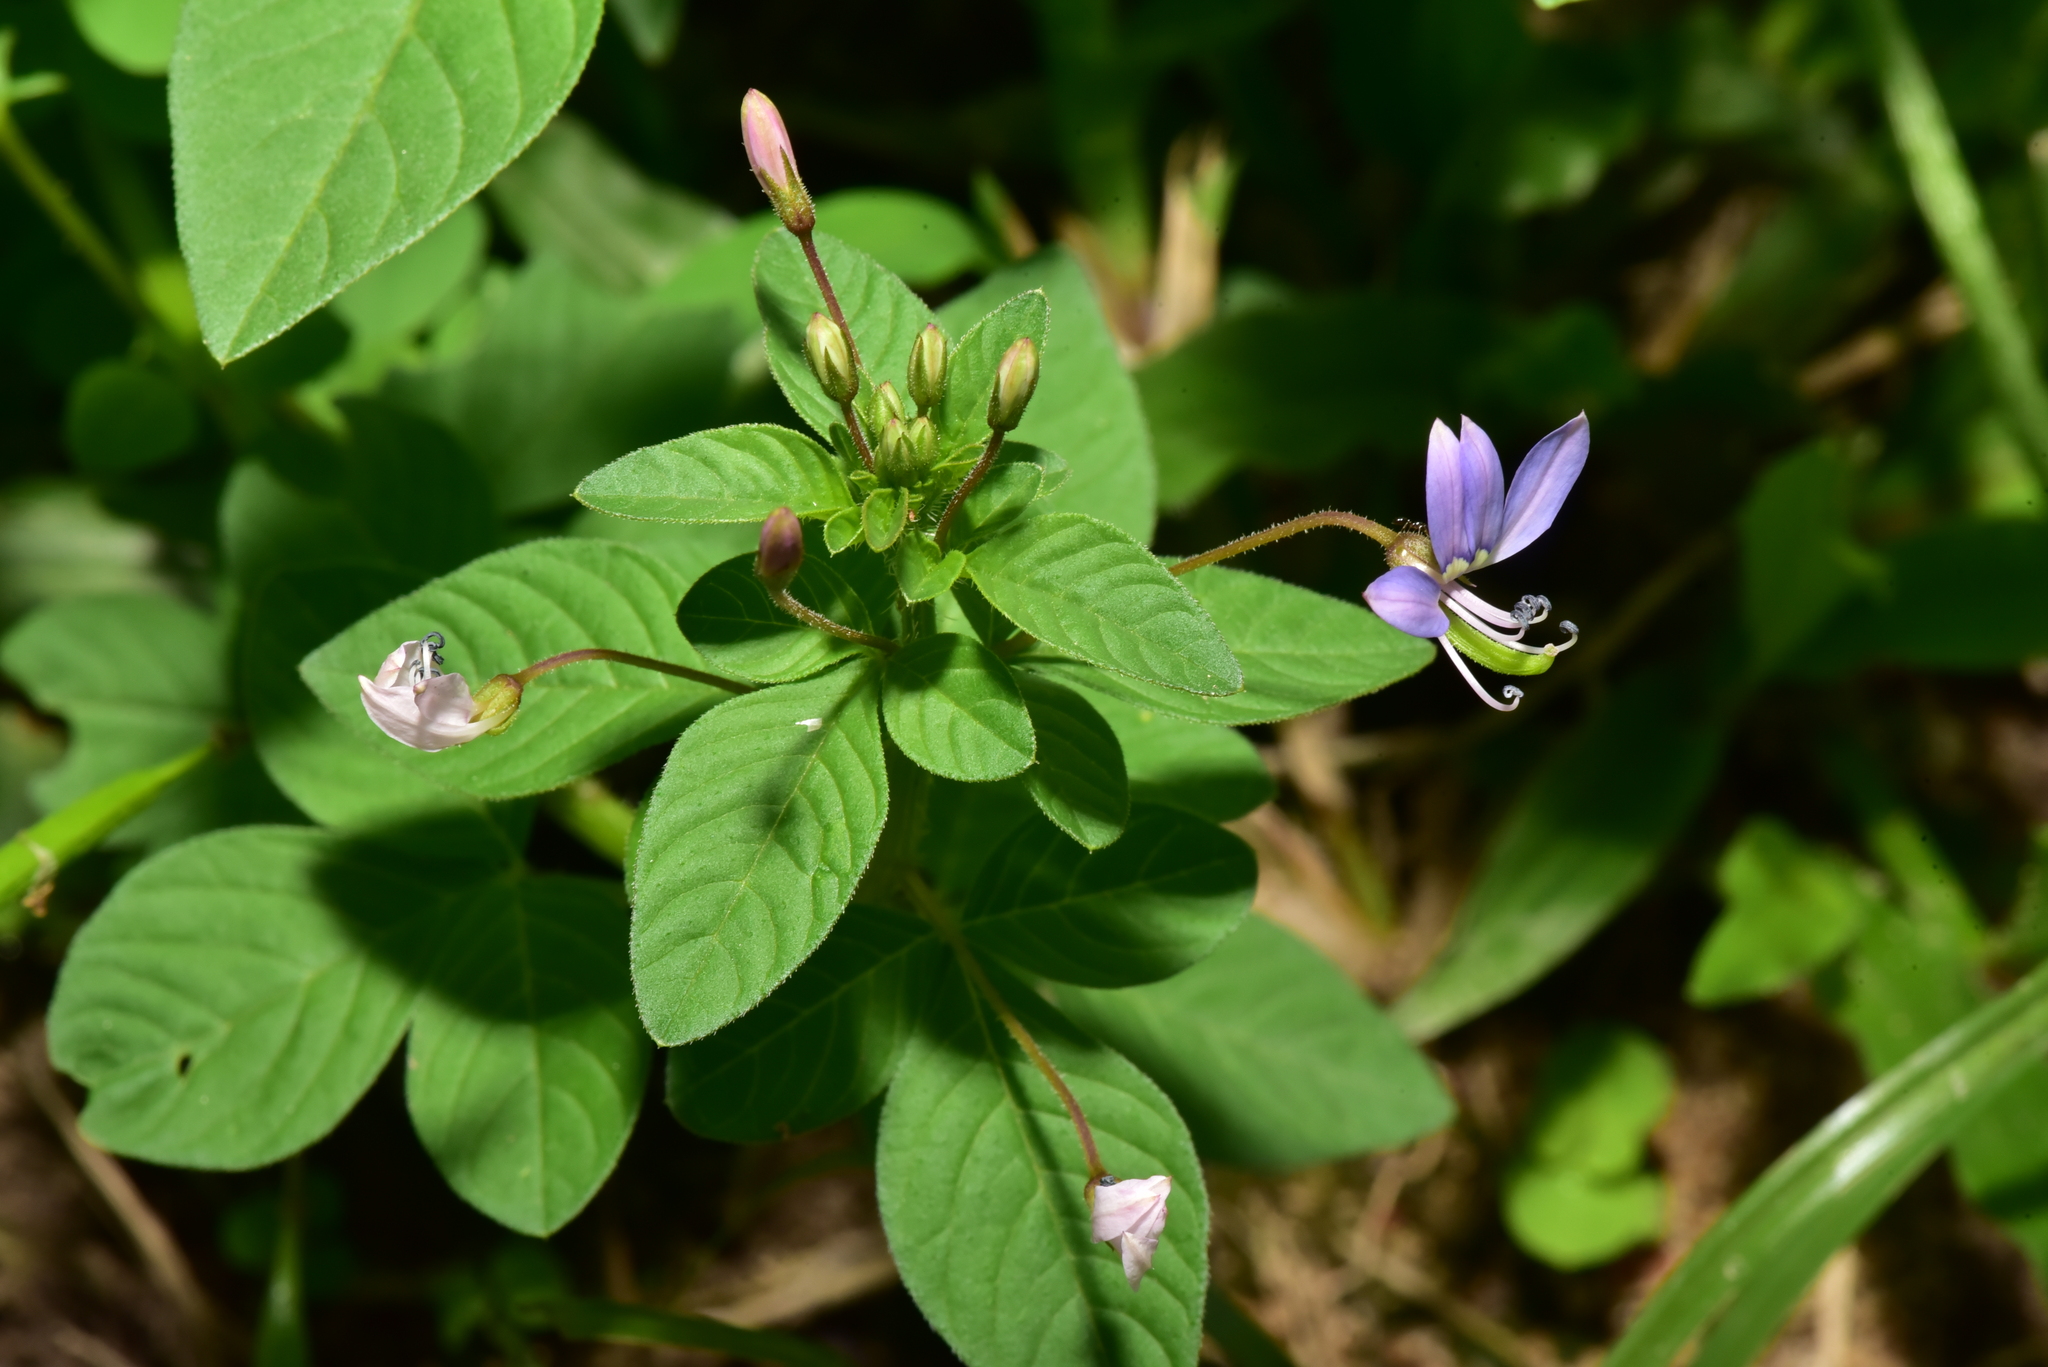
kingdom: Plantae
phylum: Tracheophyta
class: Magnoliopsida
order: Brassicales
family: Cleomaceae
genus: Sieruela
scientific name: Sieruela rutidosperma
